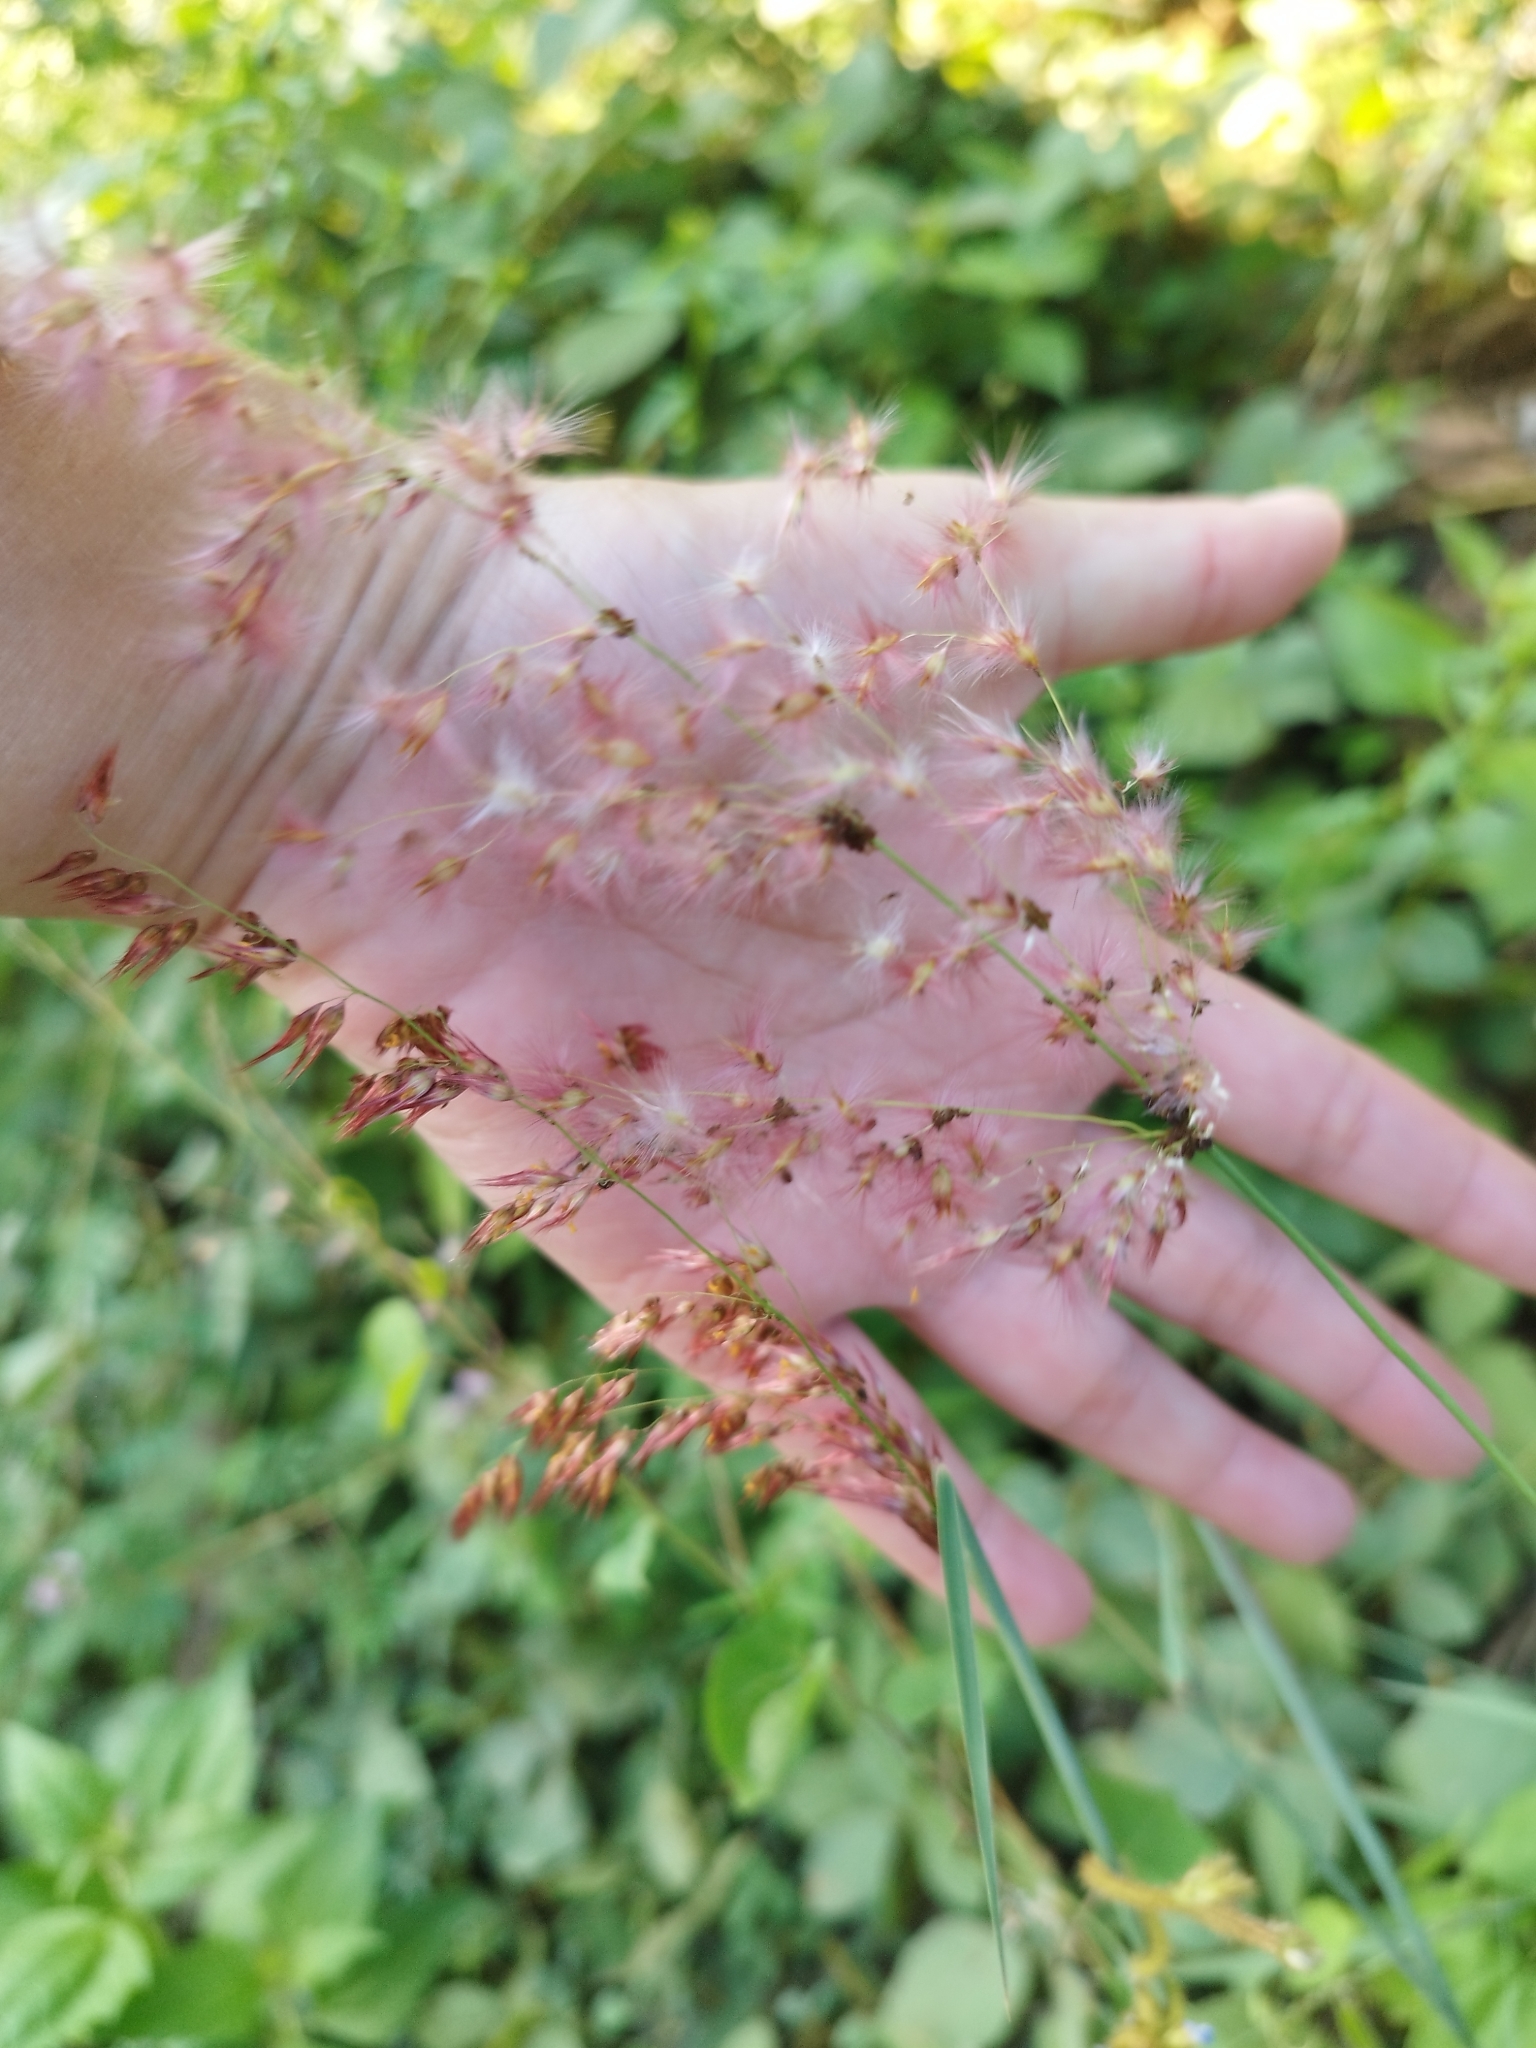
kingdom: Plantae
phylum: Tracheophyta
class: Liliopsida
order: Poales
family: Poaceae
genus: Melinis
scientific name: Melinis repens
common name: Rose natal grass
